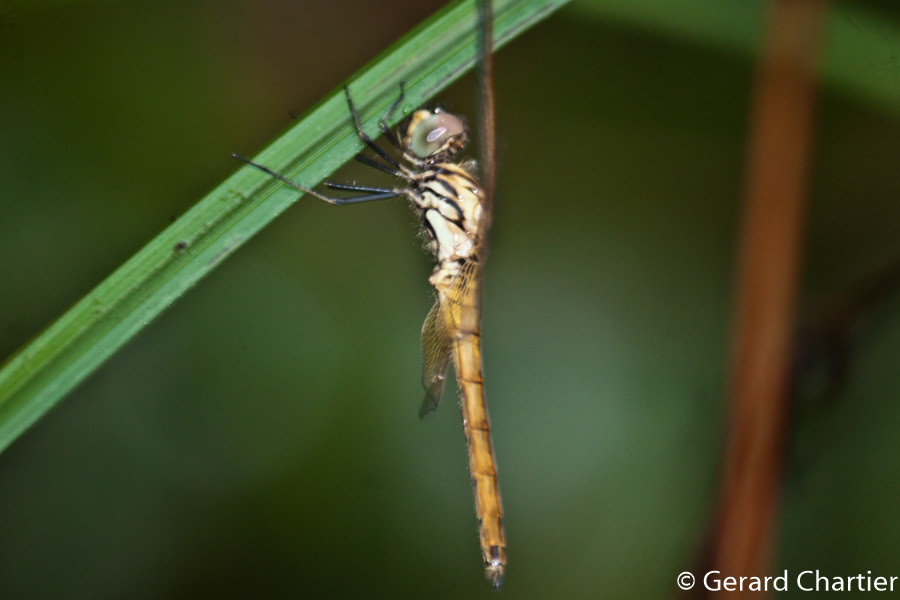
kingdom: Animalia
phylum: Arthropoda
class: Insecta
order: Odonata
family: Libellulidae
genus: Trithemis
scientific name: Trithemis aurora
